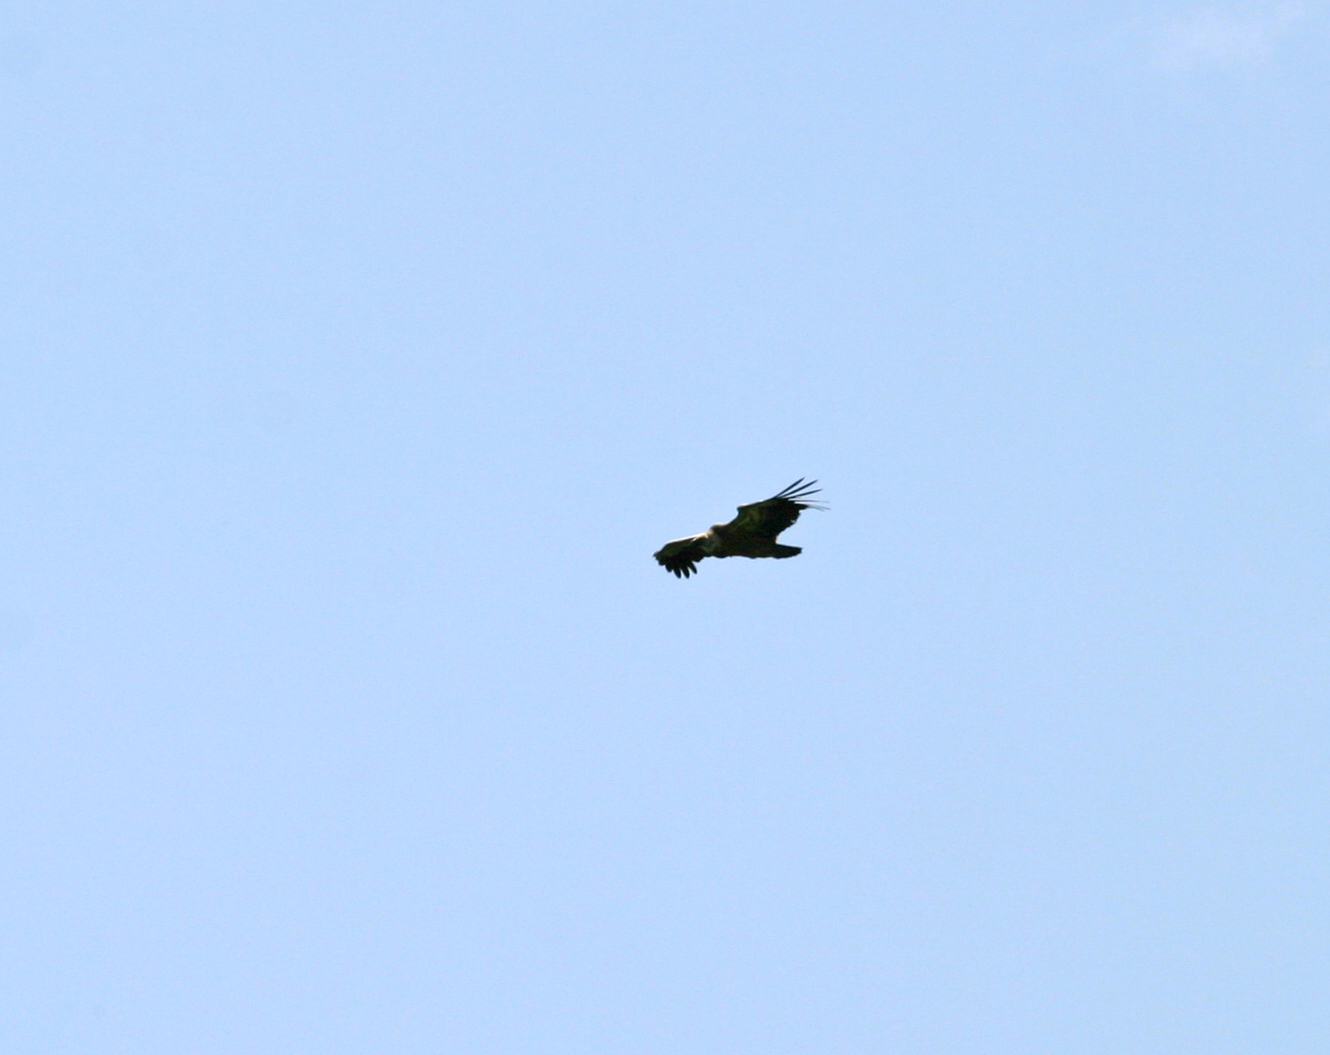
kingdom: Animalia
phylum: Chordata
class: Aves
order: Accipitriformes
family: Accipitridae
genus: Gyps
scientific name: Gyps fulvus
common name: Griffon vulture
